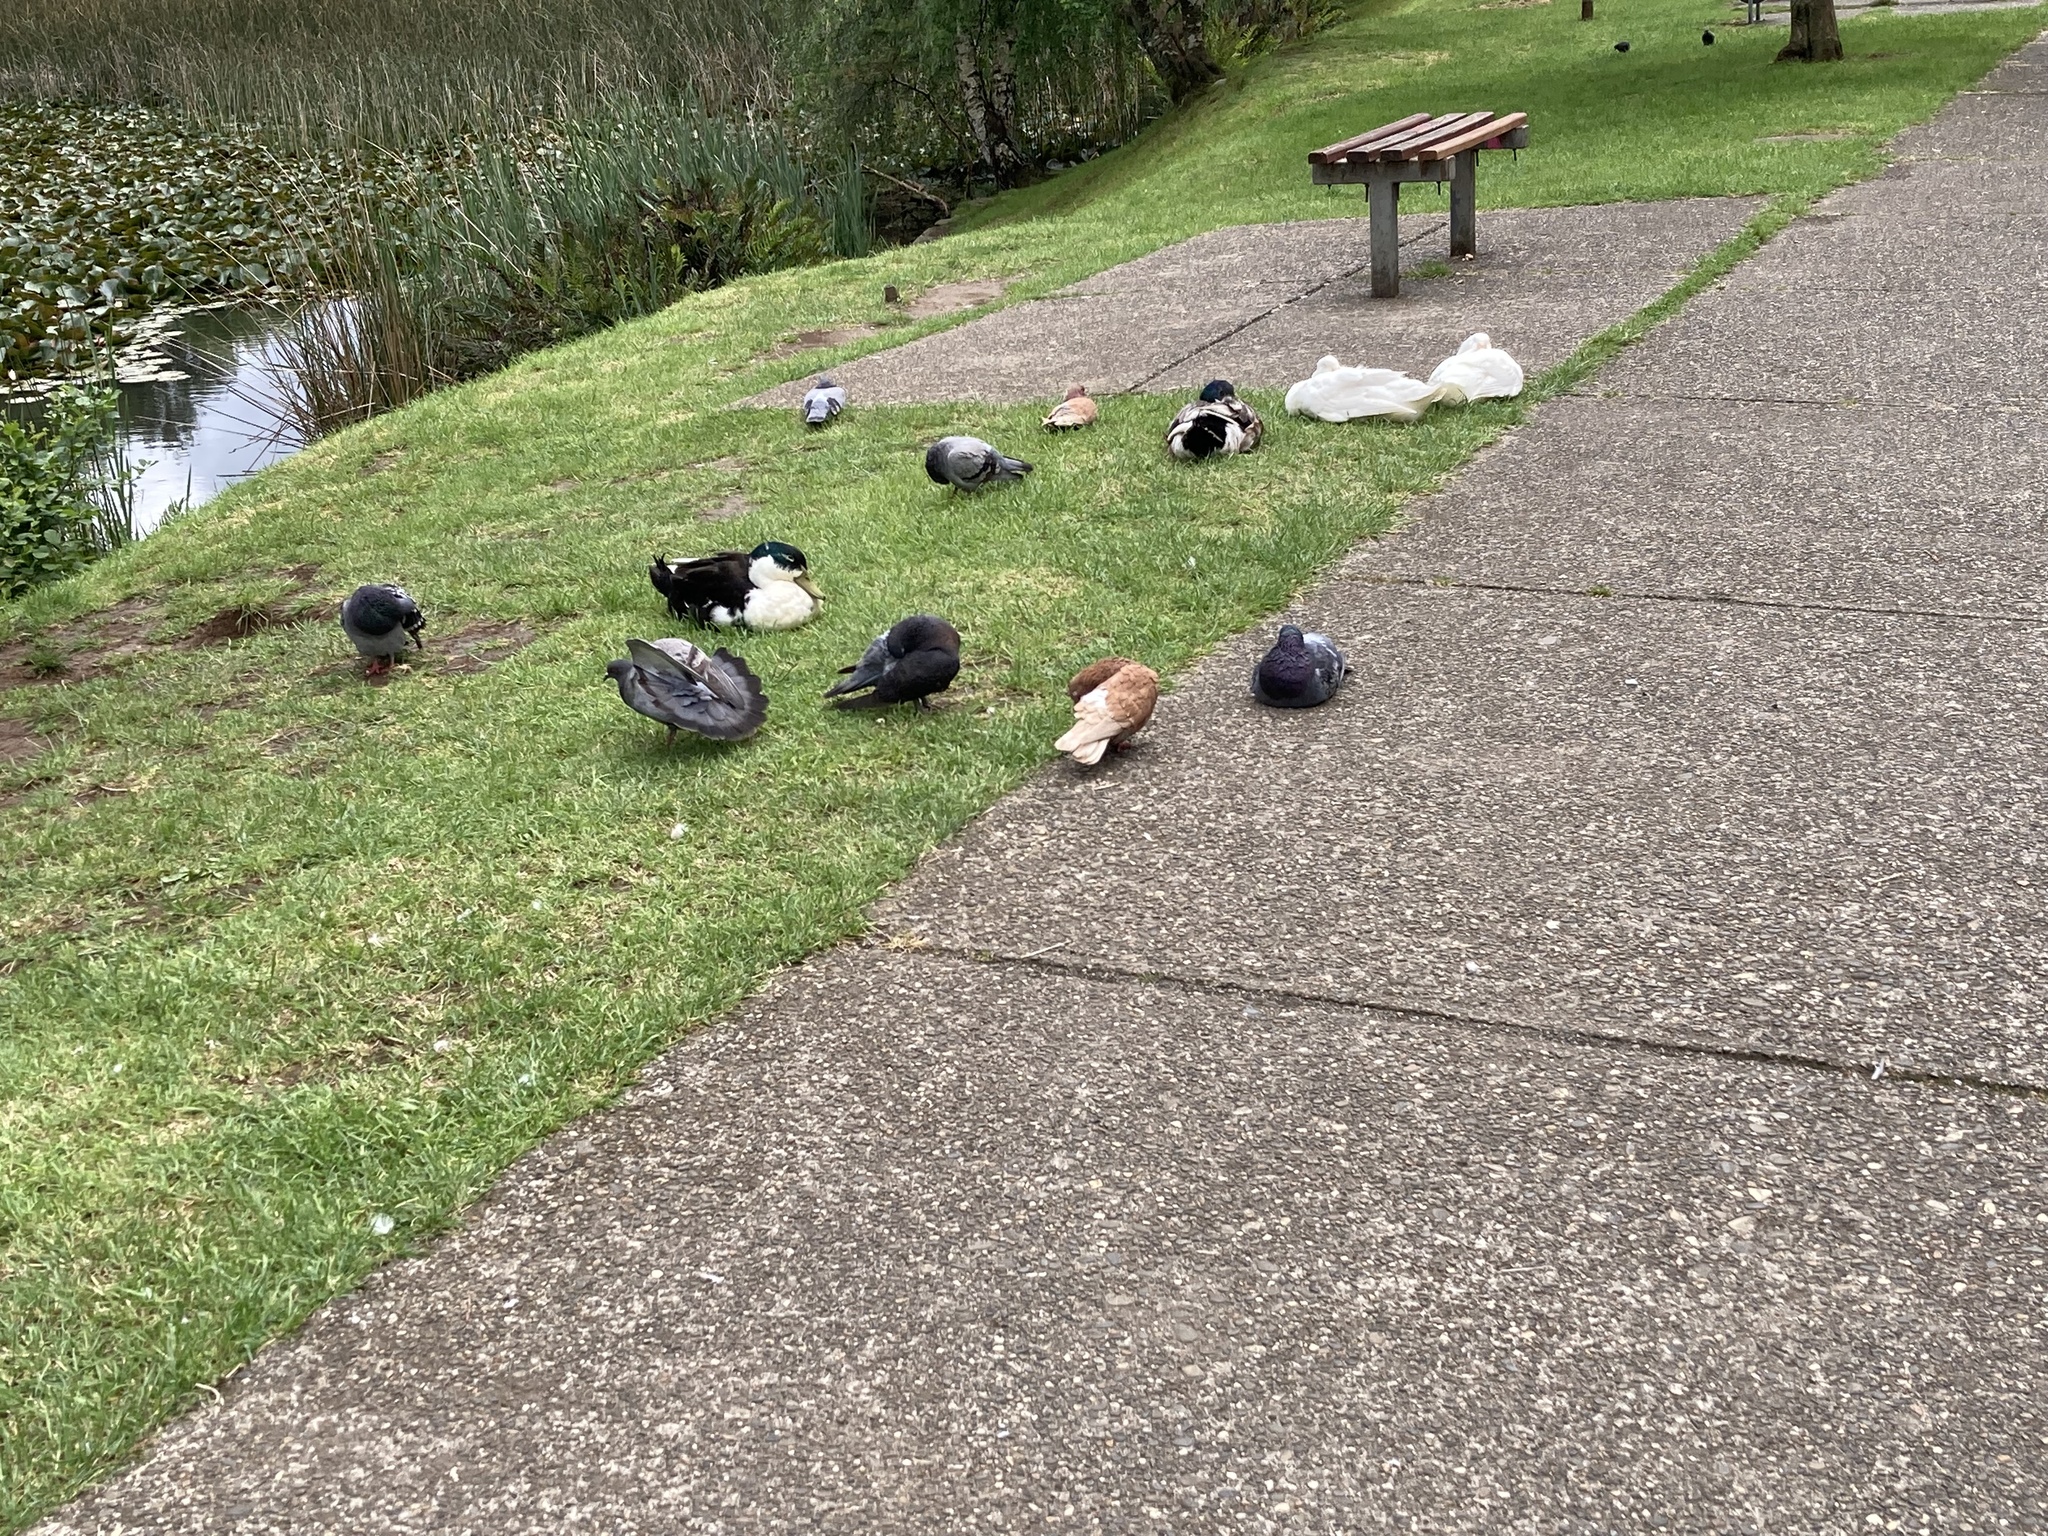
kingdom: Animalia
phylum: Chordata
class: Aves
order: Columbiformes
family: Columbidae
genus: Columba
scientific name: Columba livia
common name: Rock pigeon
